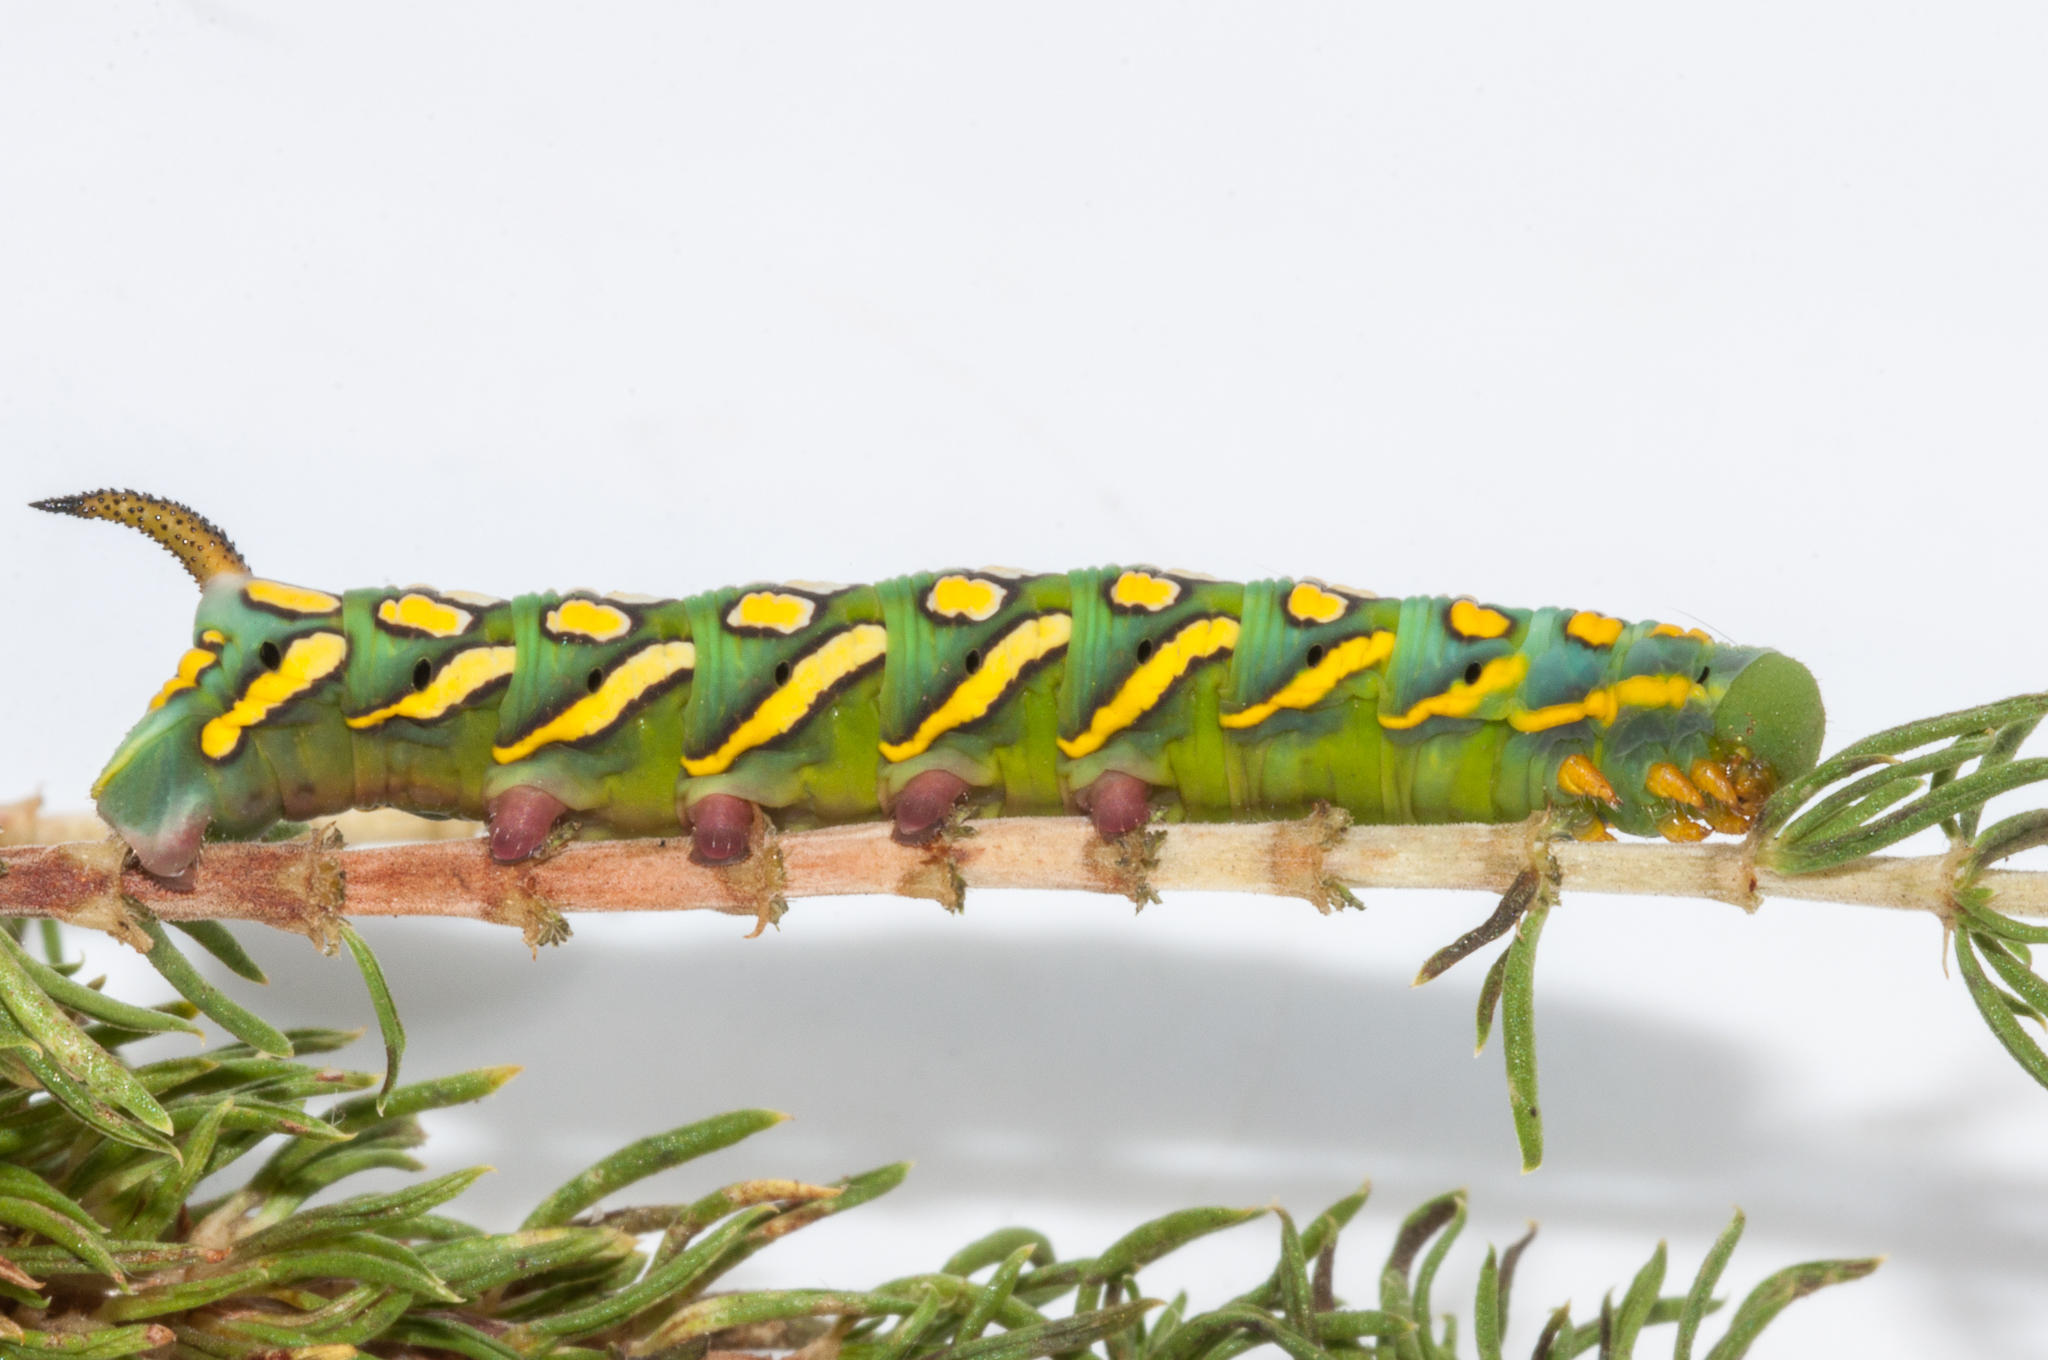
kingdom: Animalia
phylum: Arthropoda
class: Insecta
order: Lepidoptera
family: Sphingidae
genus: Temnora
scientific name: Temnora pylas
